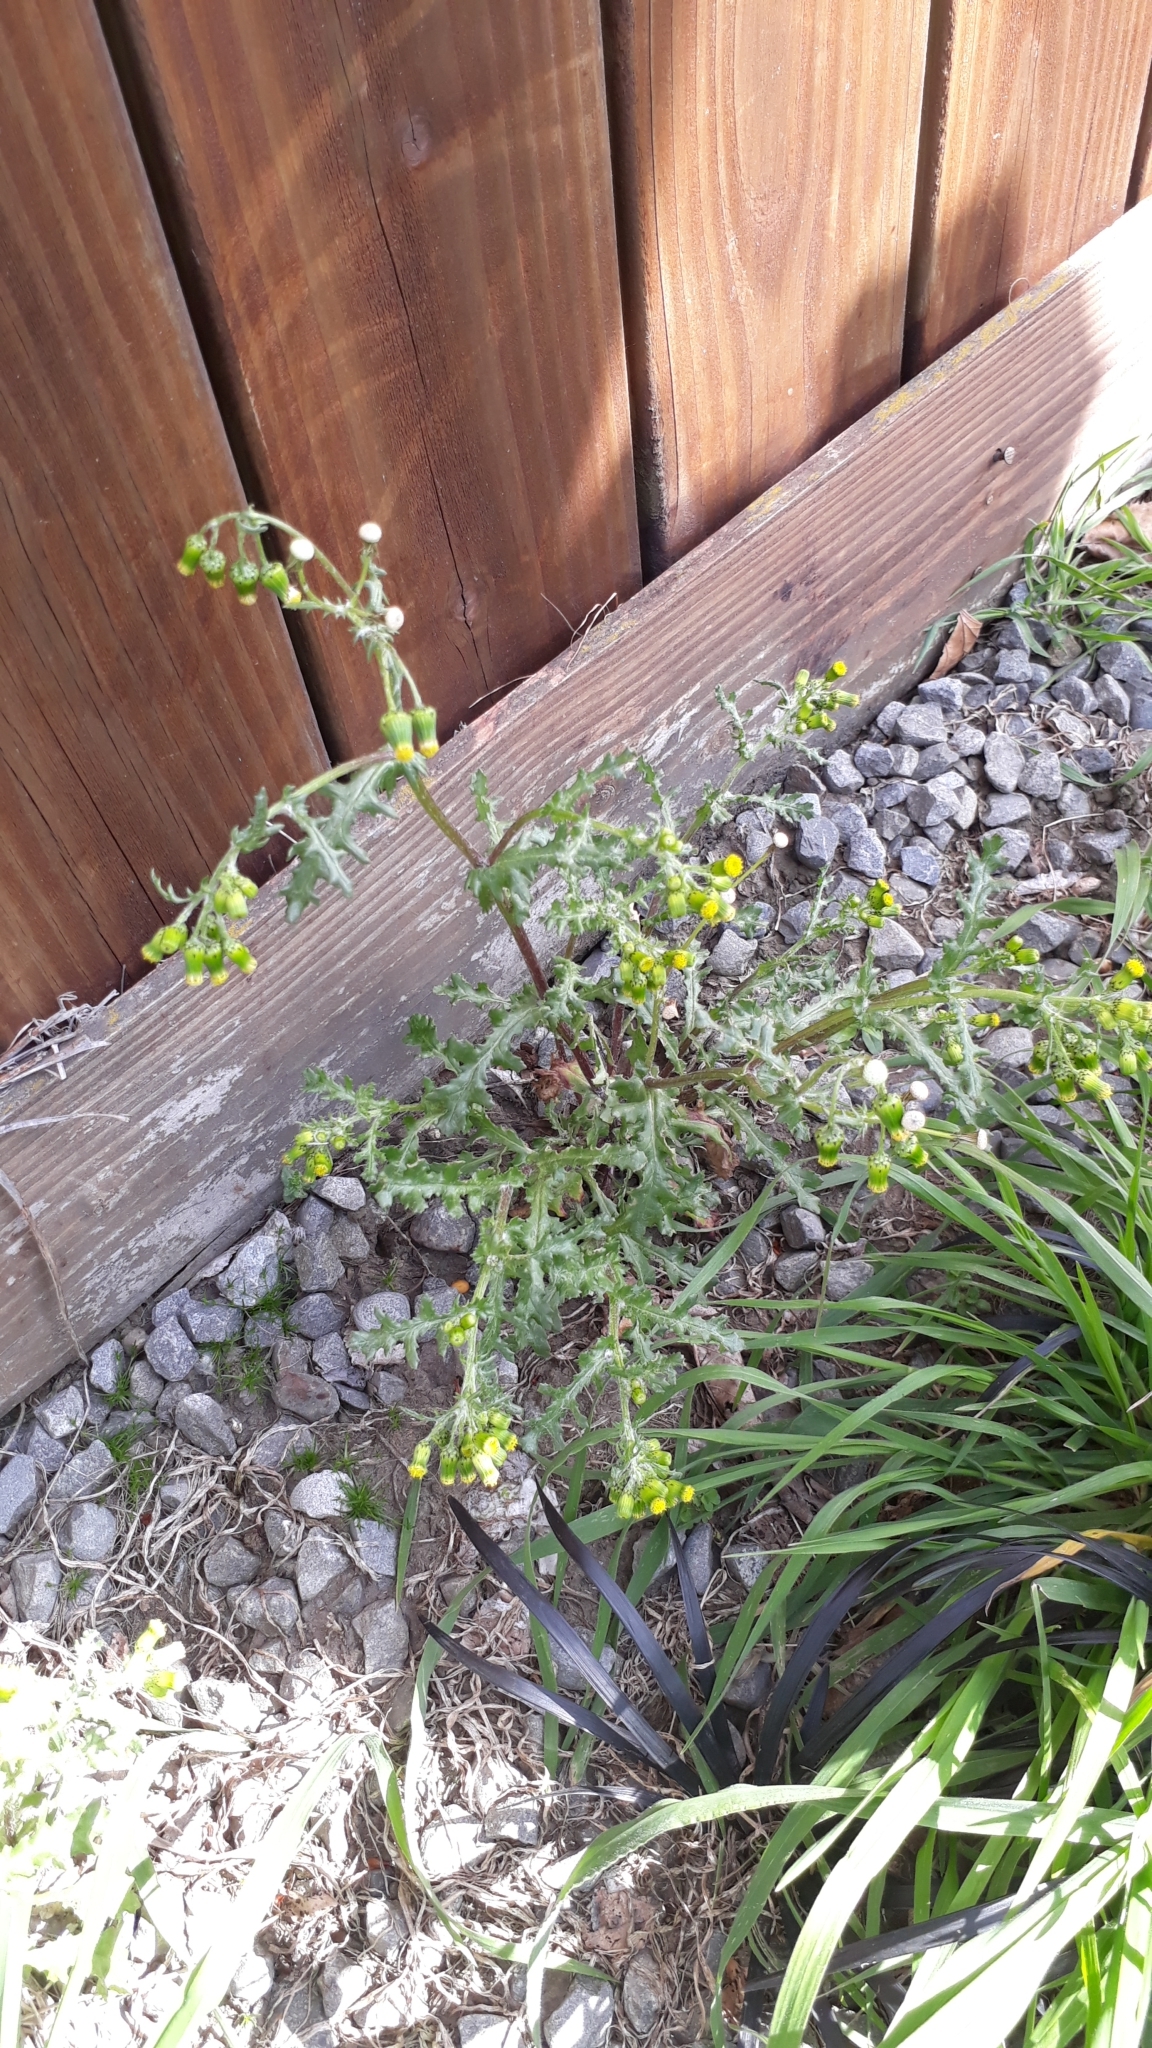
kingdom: Plantae
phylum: Tracheophyta
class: Magnoliopsida
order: Asterales
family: Asteraceae
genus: Senecio
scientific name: Senecio vulgaris
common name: Old-man-in-the-spring
